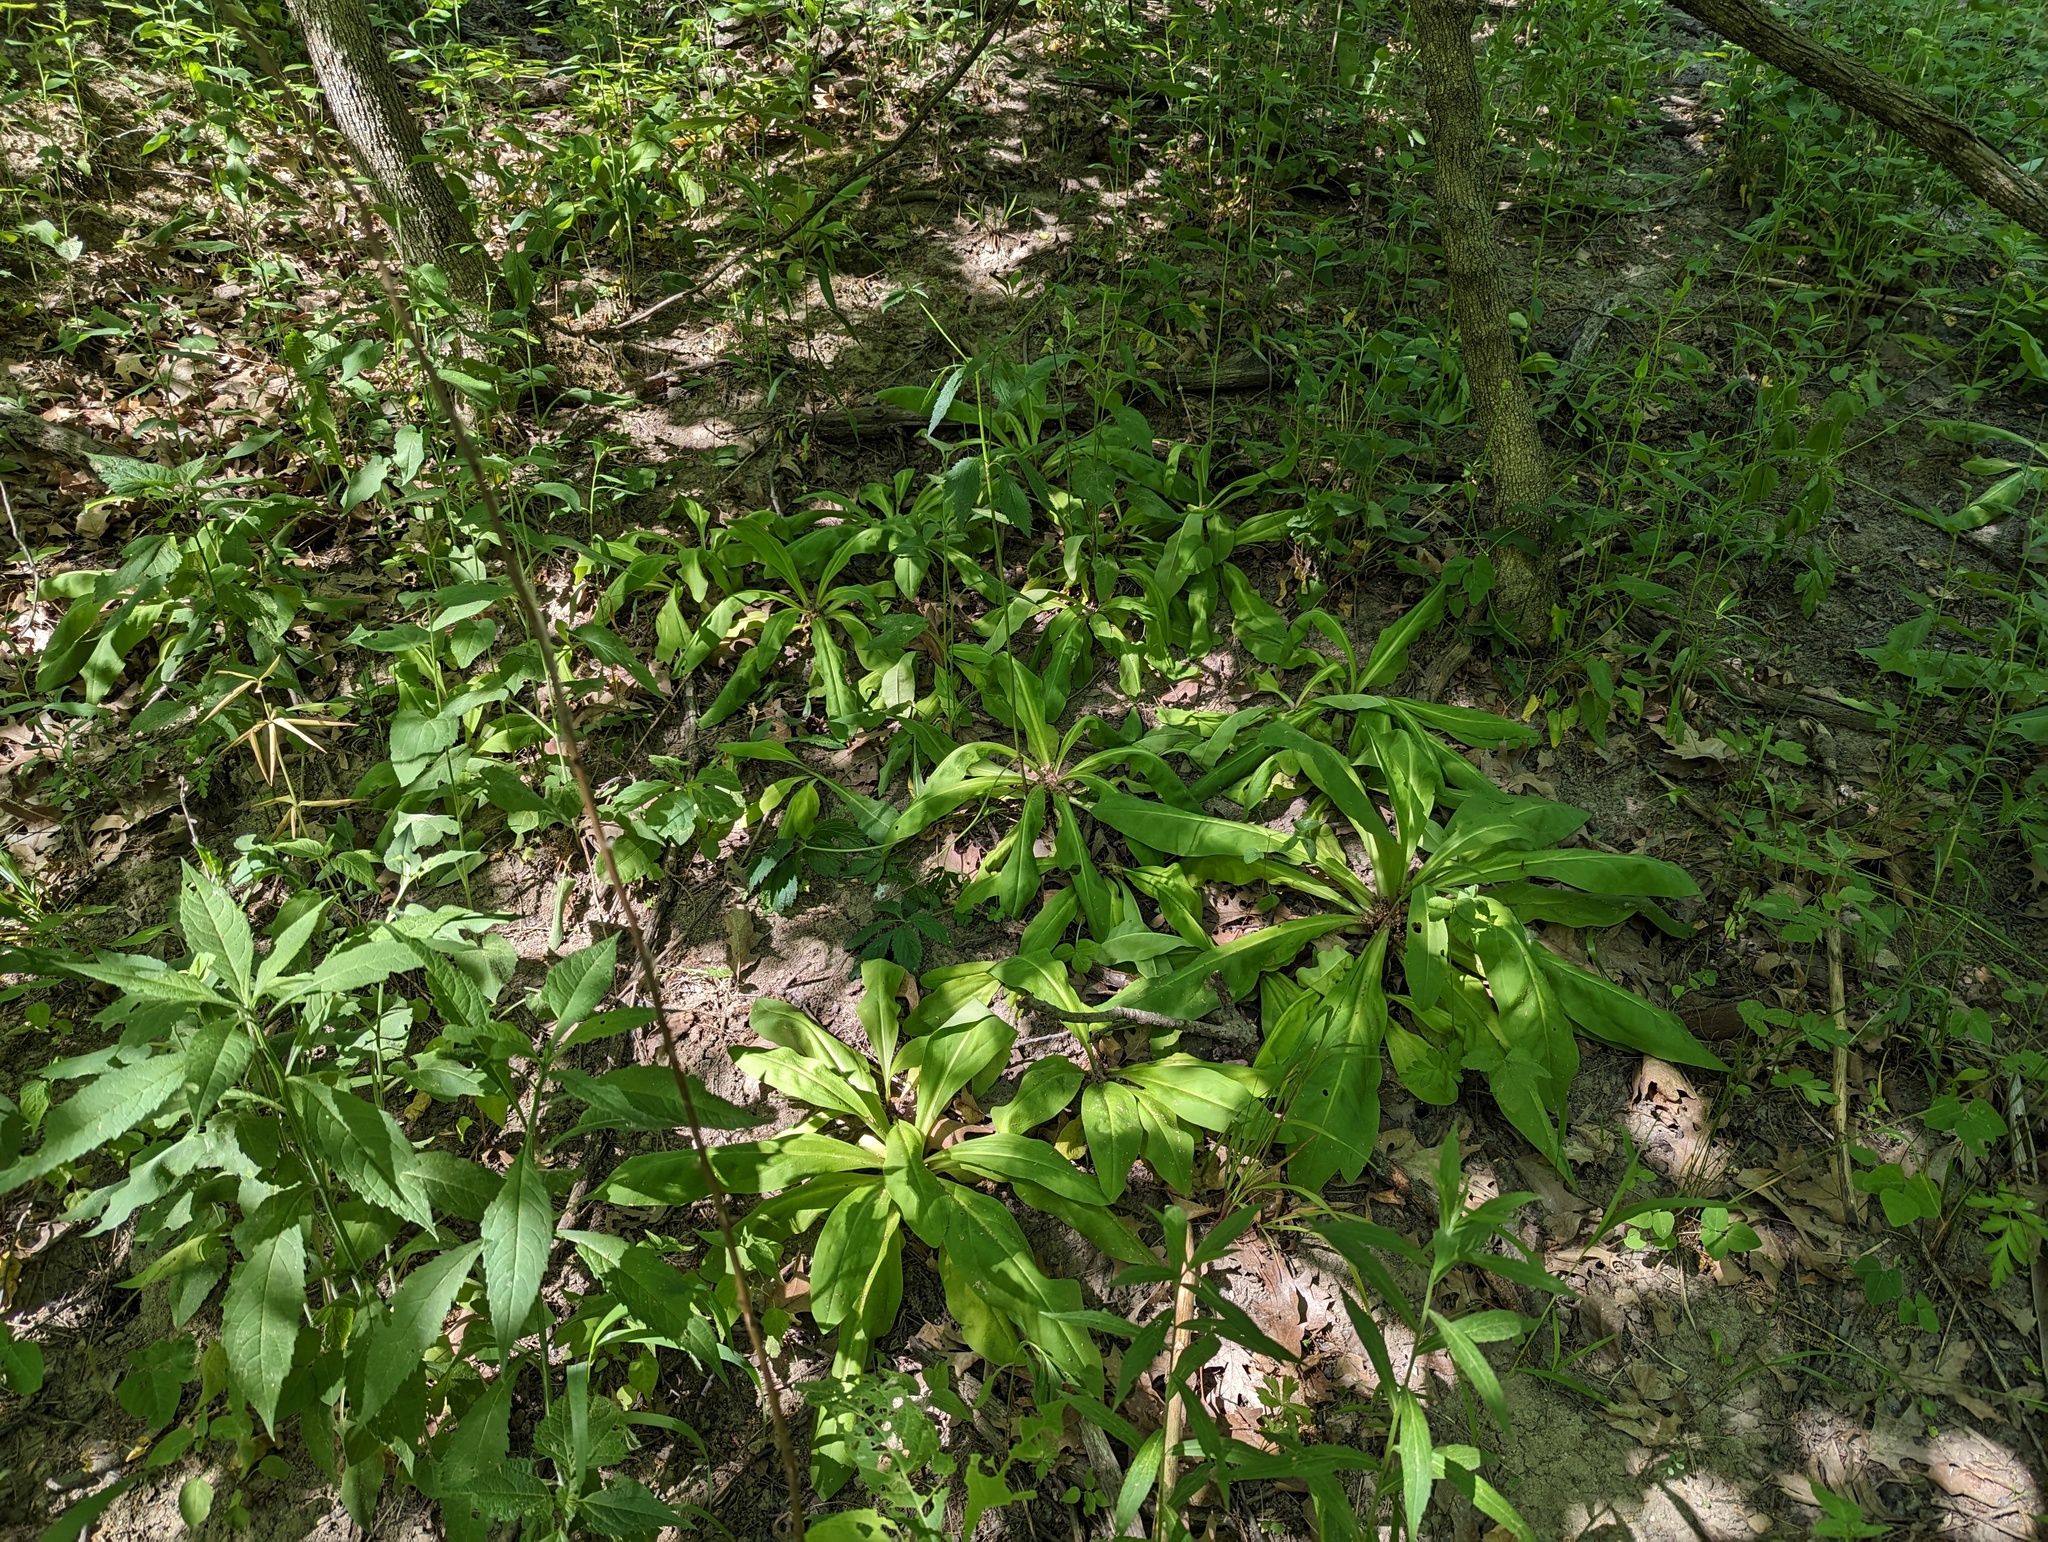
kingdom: Plantae
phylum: Tracheophyta
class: Magnoliopsida
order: Gentianales
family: Gentianaceae
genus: Frasera
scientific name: Frasera caroliniensis
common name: American columbo
